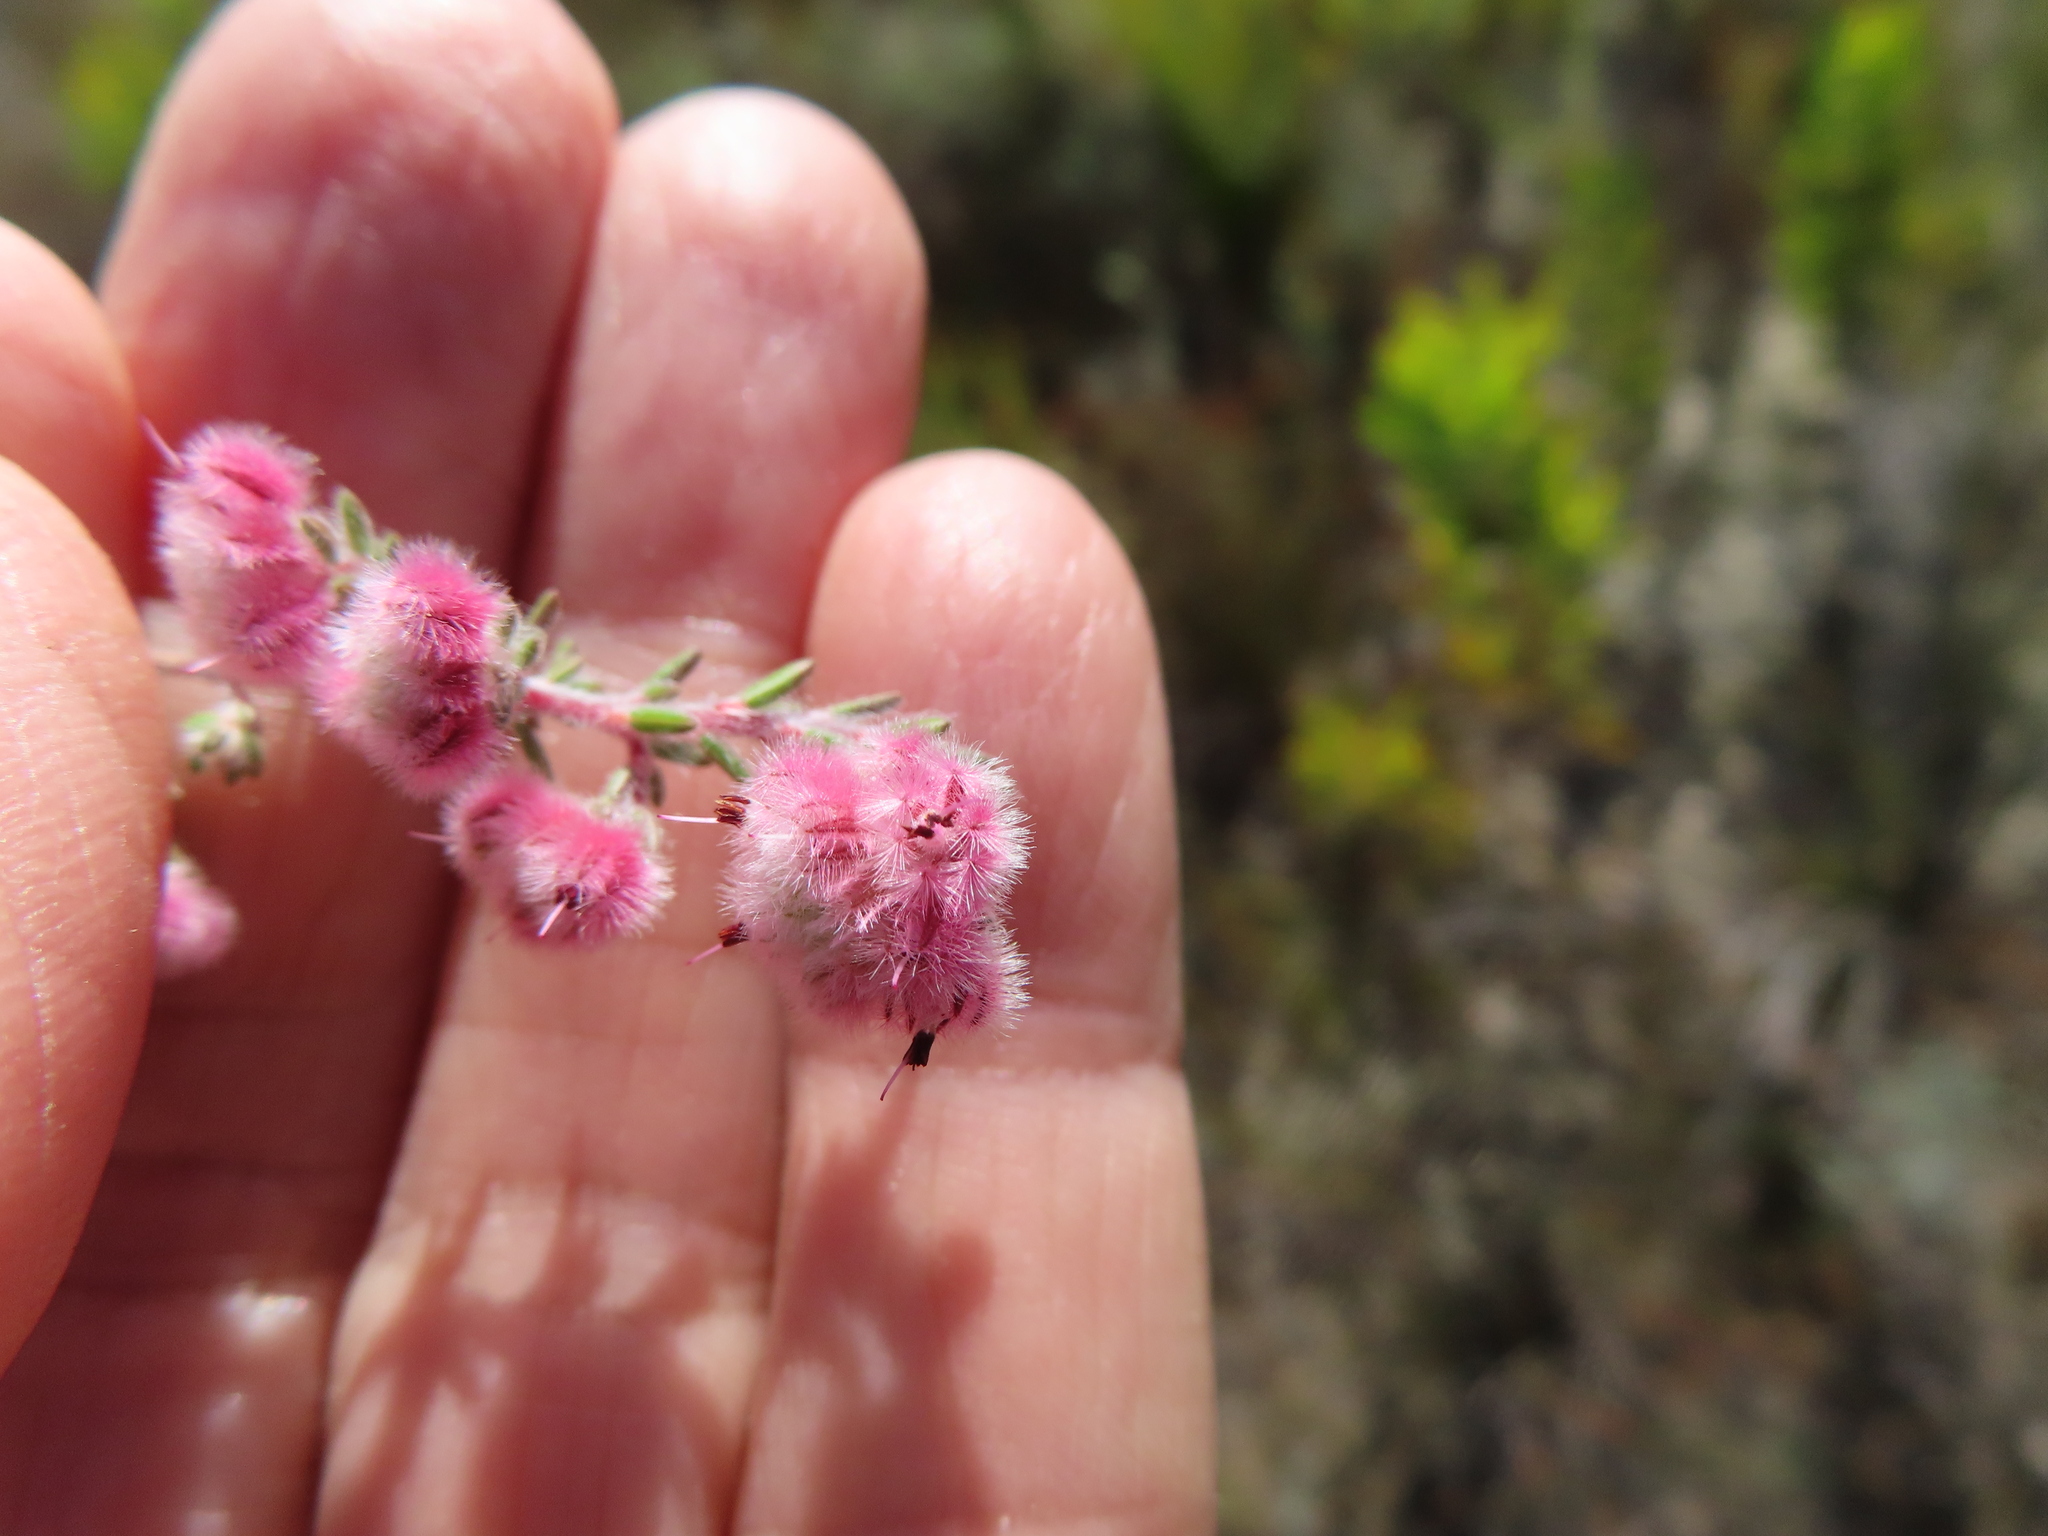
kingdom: Plantae
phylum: Tracheophyta
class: Magnoliopsida
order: Ericales
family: Ericaceae
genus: Erica
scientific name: Erica pilosiflora
